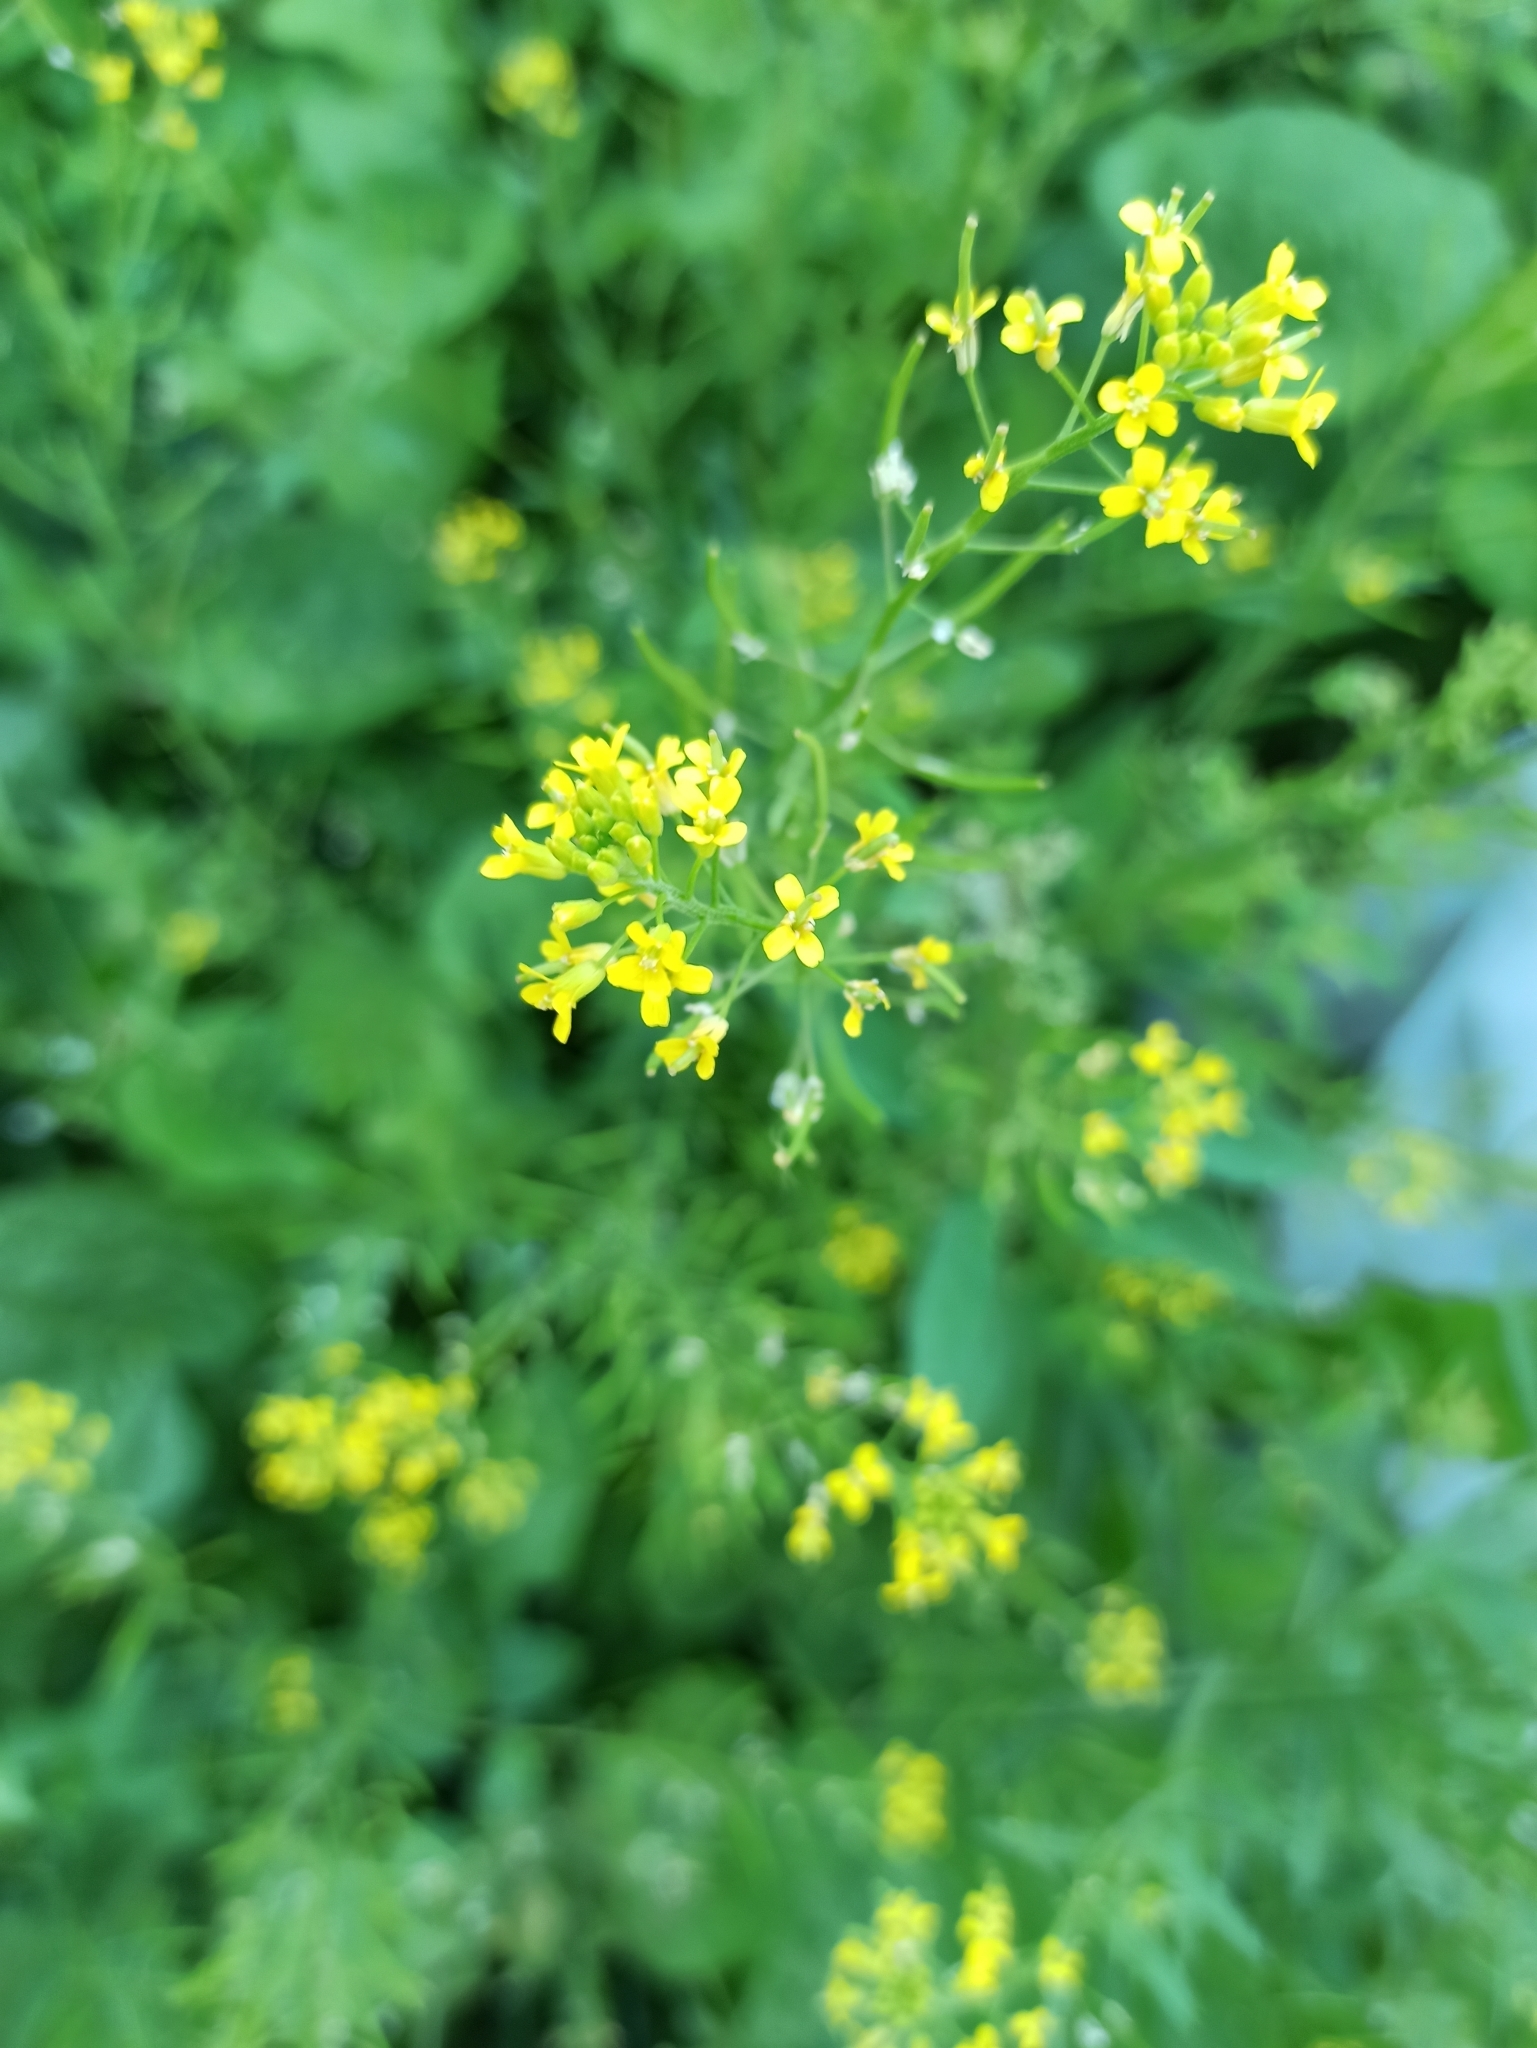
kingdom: Plantae
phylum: Tracheophyta
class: Magnoliopsida
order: Brassicales
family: Brassicaceae
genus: Erysimum
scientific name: Erysimum cheiranthoides
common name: Treacle mustard
